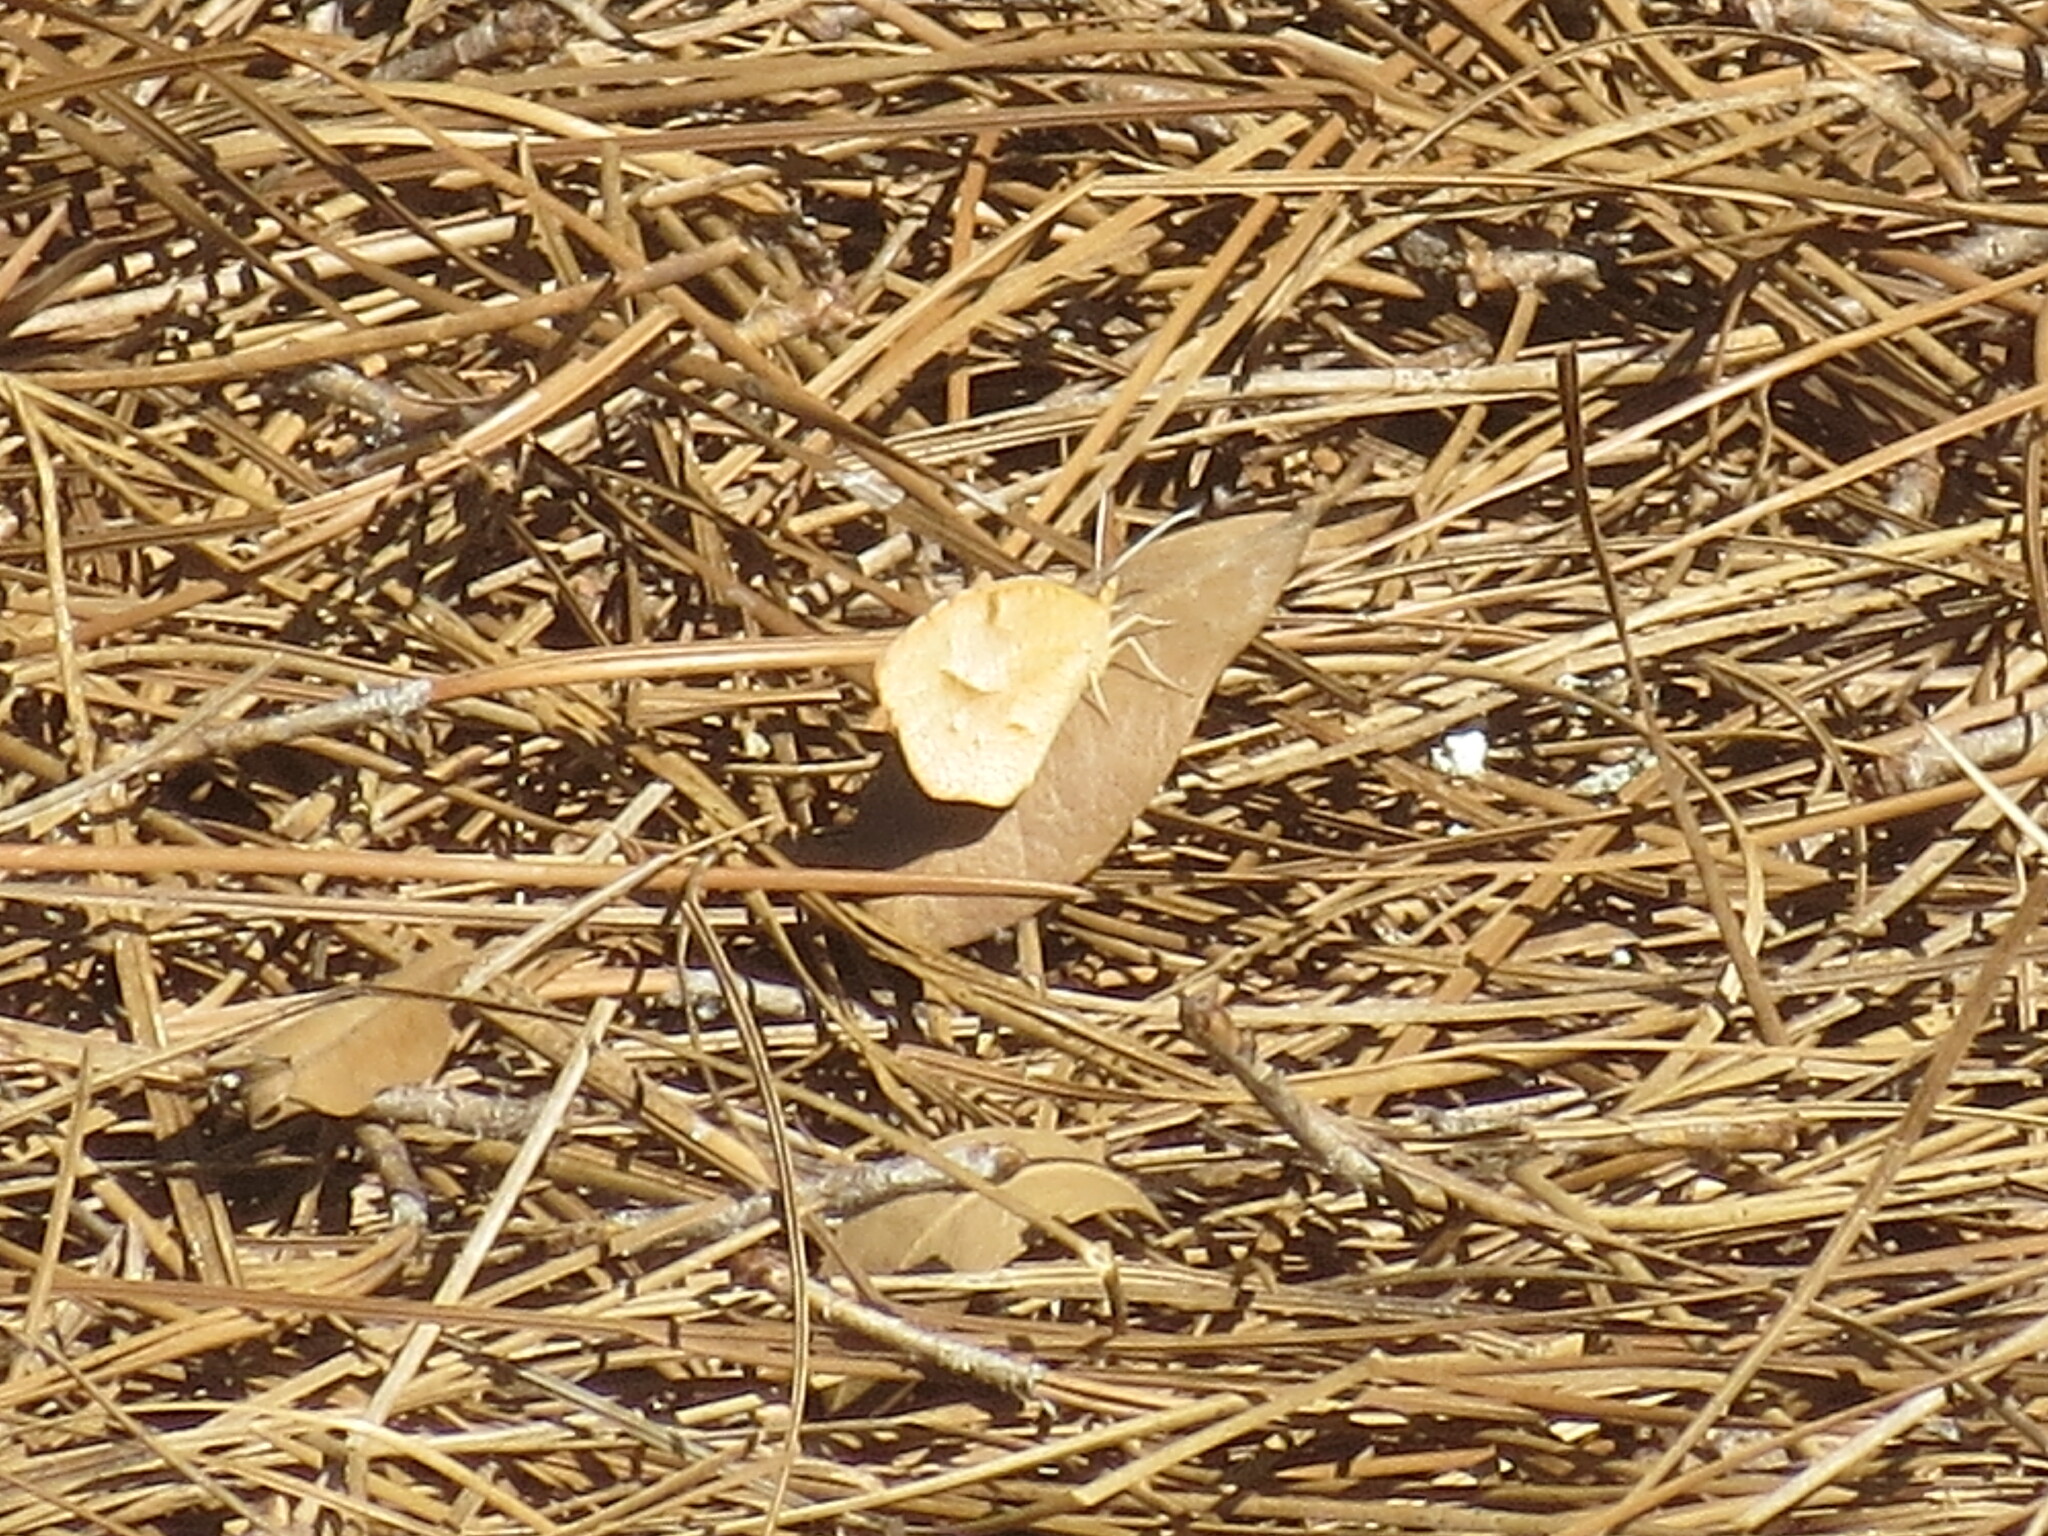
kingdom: Animalia
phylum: Arthropoda
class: Insecta
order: Lepidoptera
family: Pieridae
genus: Abaeis
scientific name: Abaeis nicippe
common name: Sleepy orange
